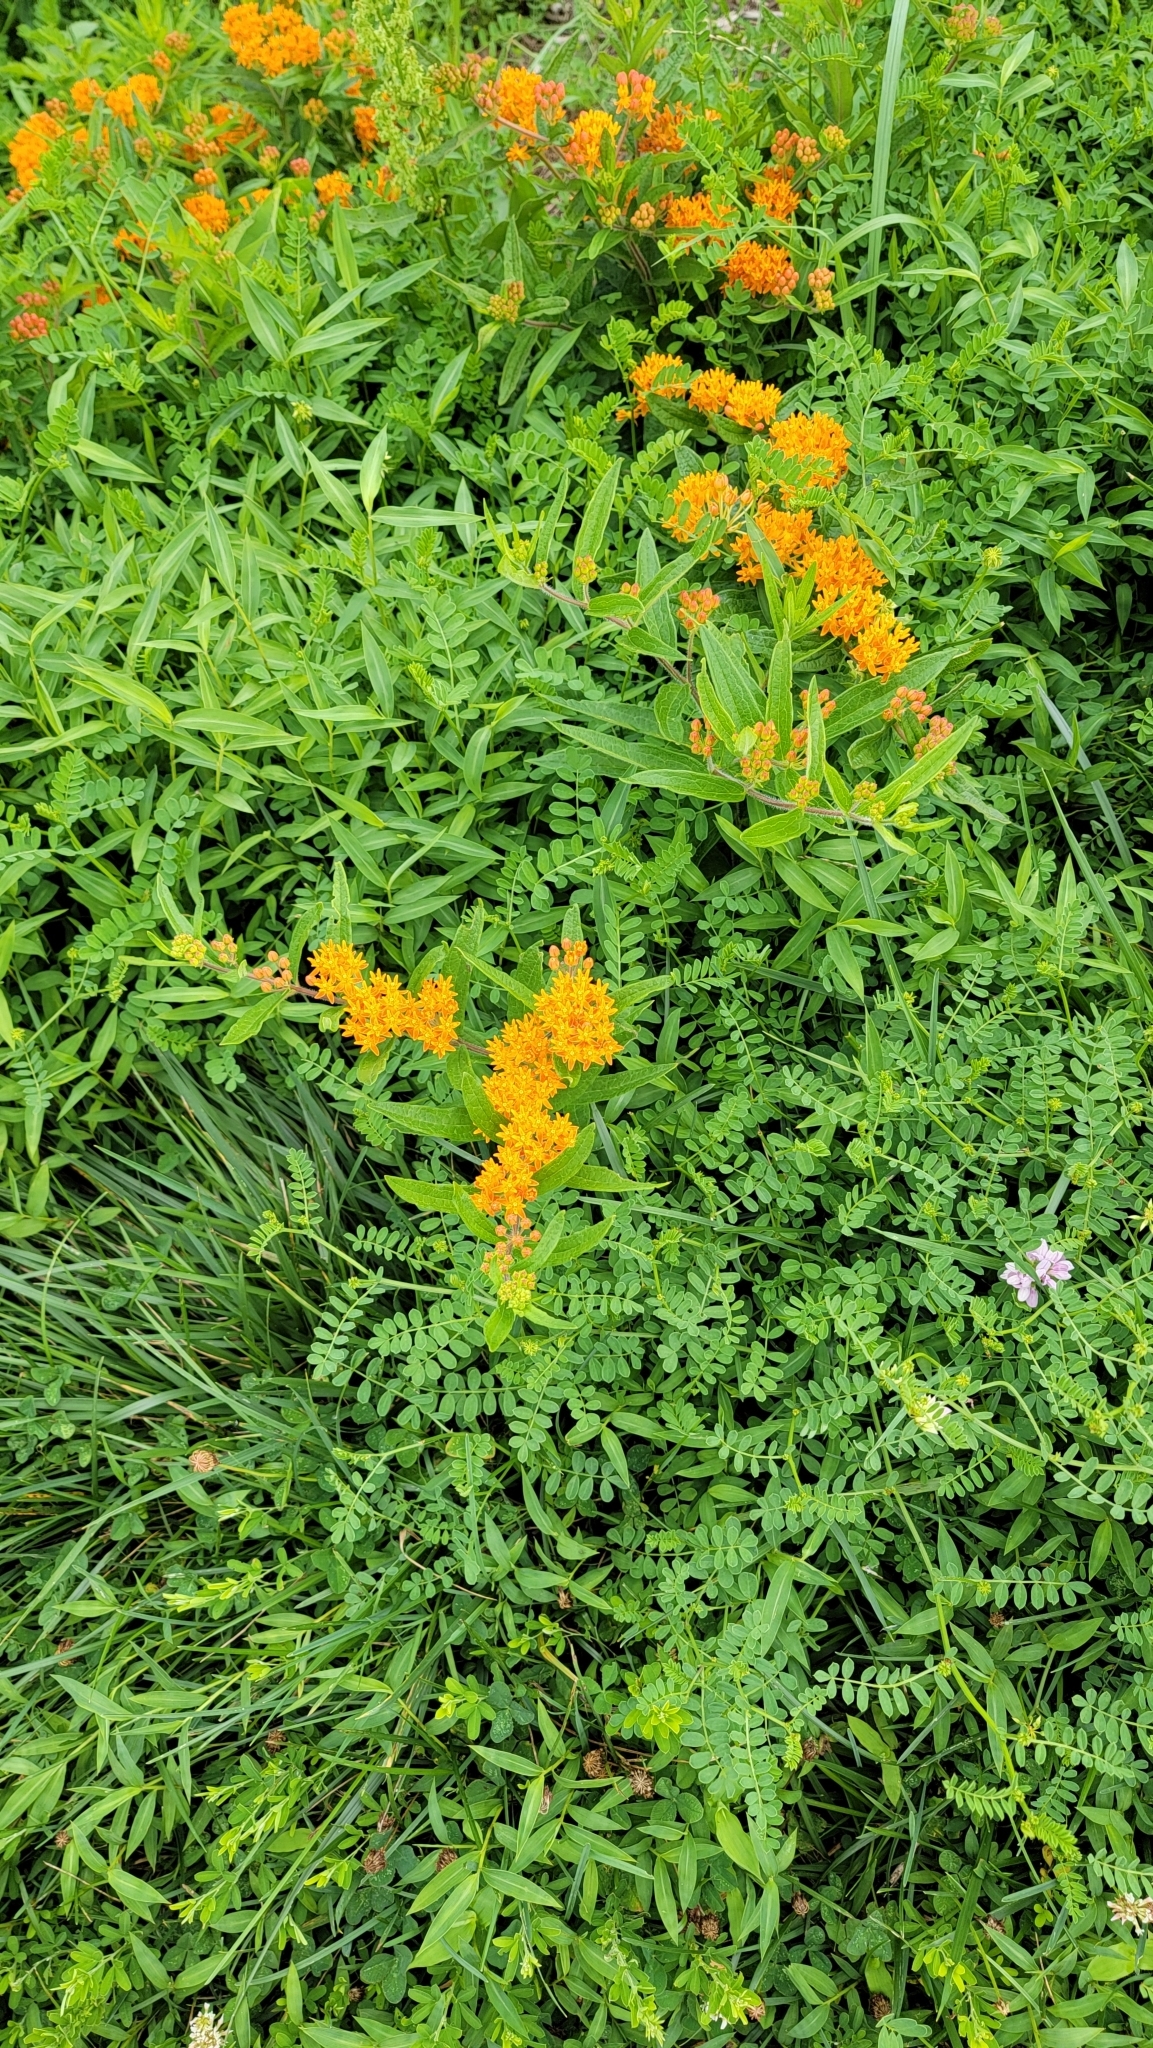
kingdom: Plantae
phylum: Tracheophyta
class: Magnoliopsida
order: Gentianales
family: Apocynaceae
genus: Asclepias
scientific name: Asclepias tuberosa
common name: Butterfly milkweed
